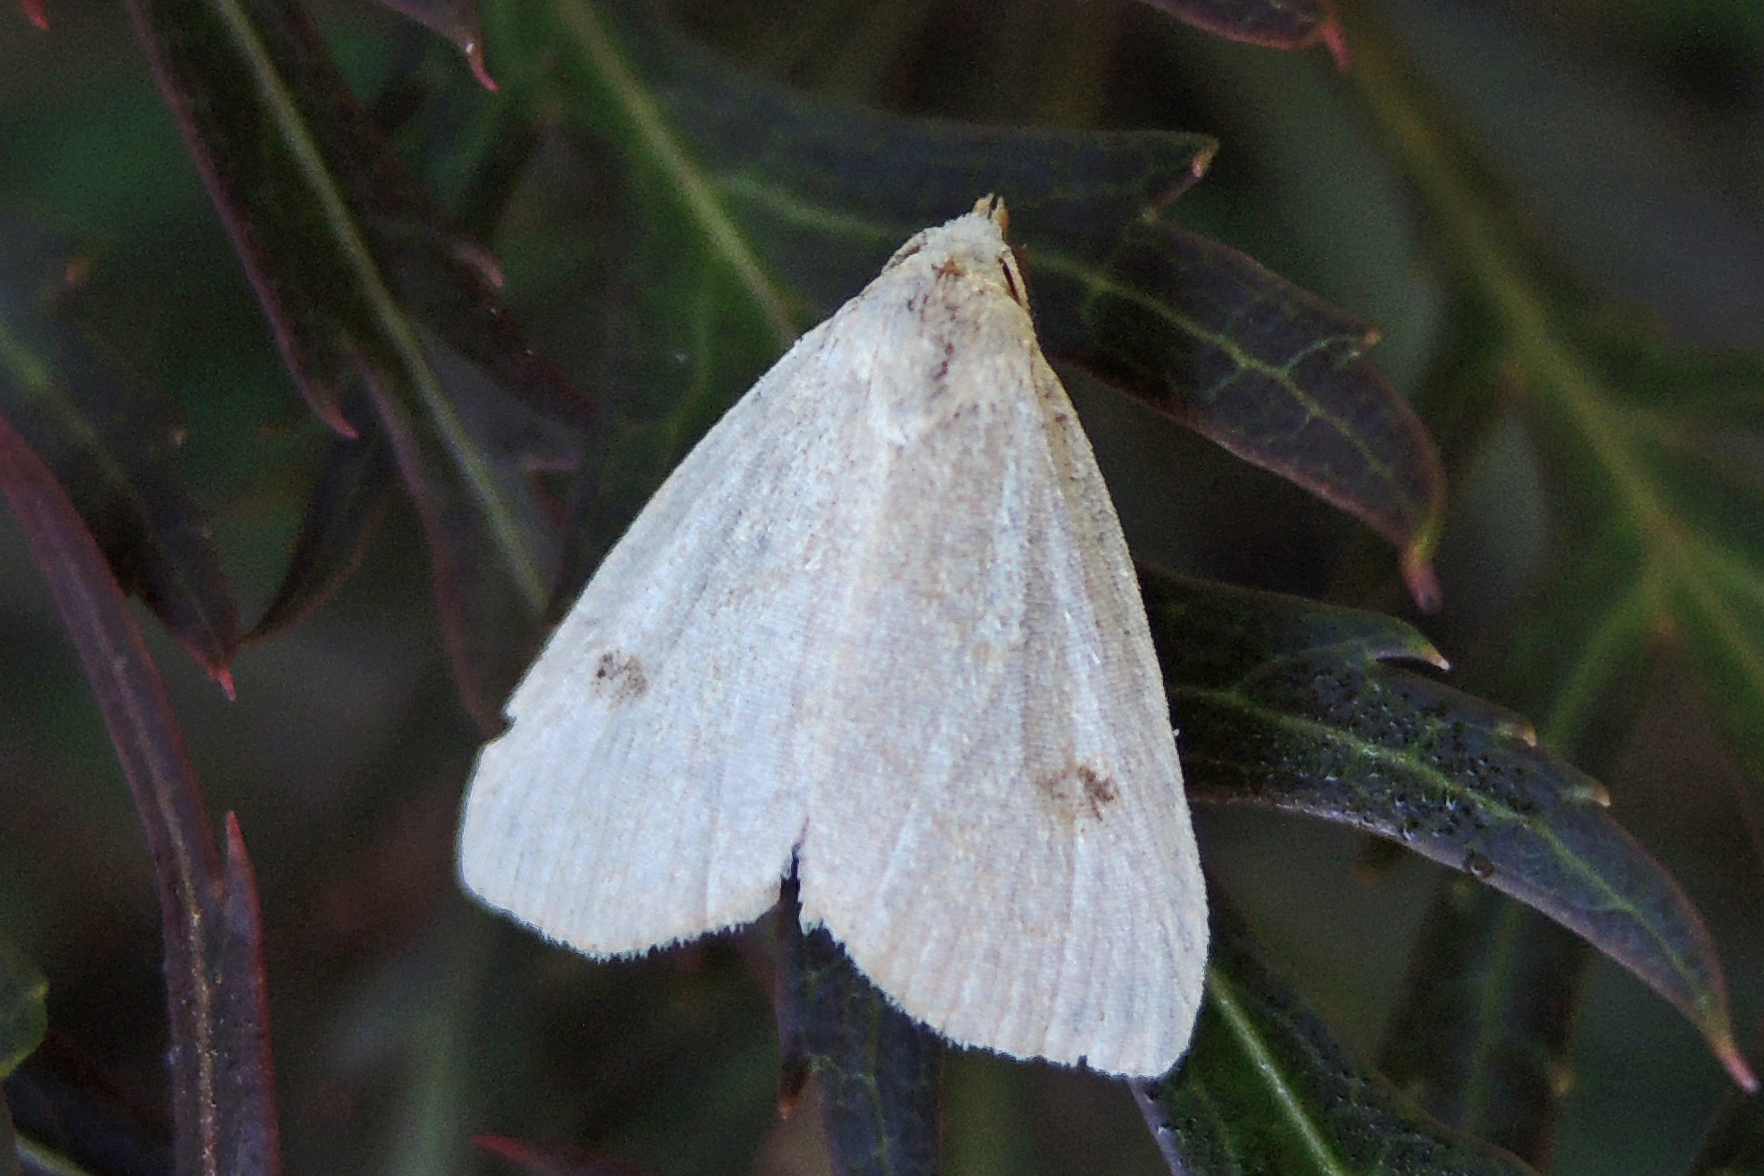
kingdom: Animalia
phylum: Arthropoda
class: Insecta
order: Lepidoptera
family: Erebidae
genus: Rivula
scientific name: Rivula propinqualis
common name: Spotted grass moth
